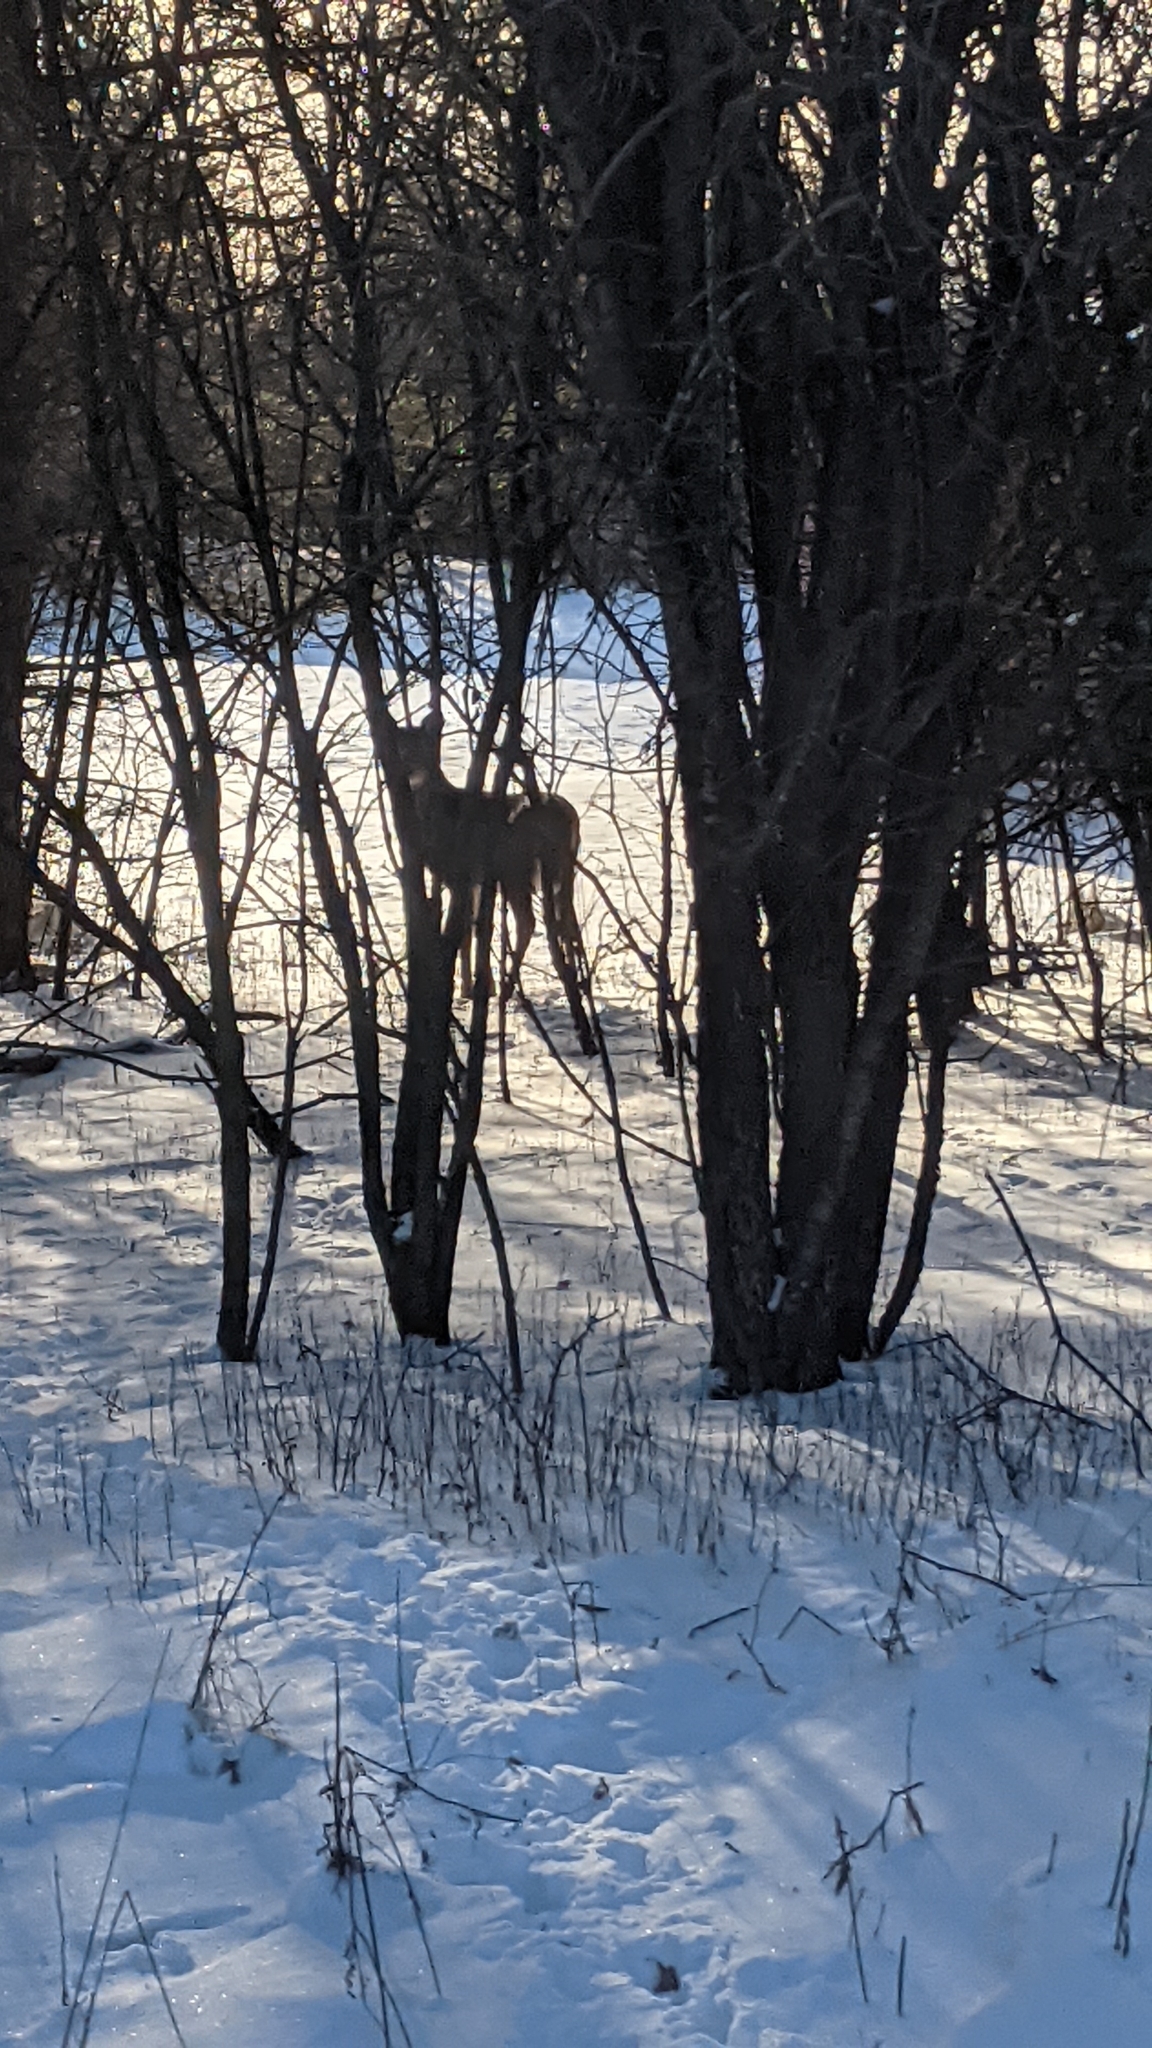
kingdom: Animalia
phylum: Chordata
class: Mammalia
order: Artiodactyla
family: Cervidae
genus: Odocoileus
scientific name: Odocoileus virginianus
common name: White-tailed deer
